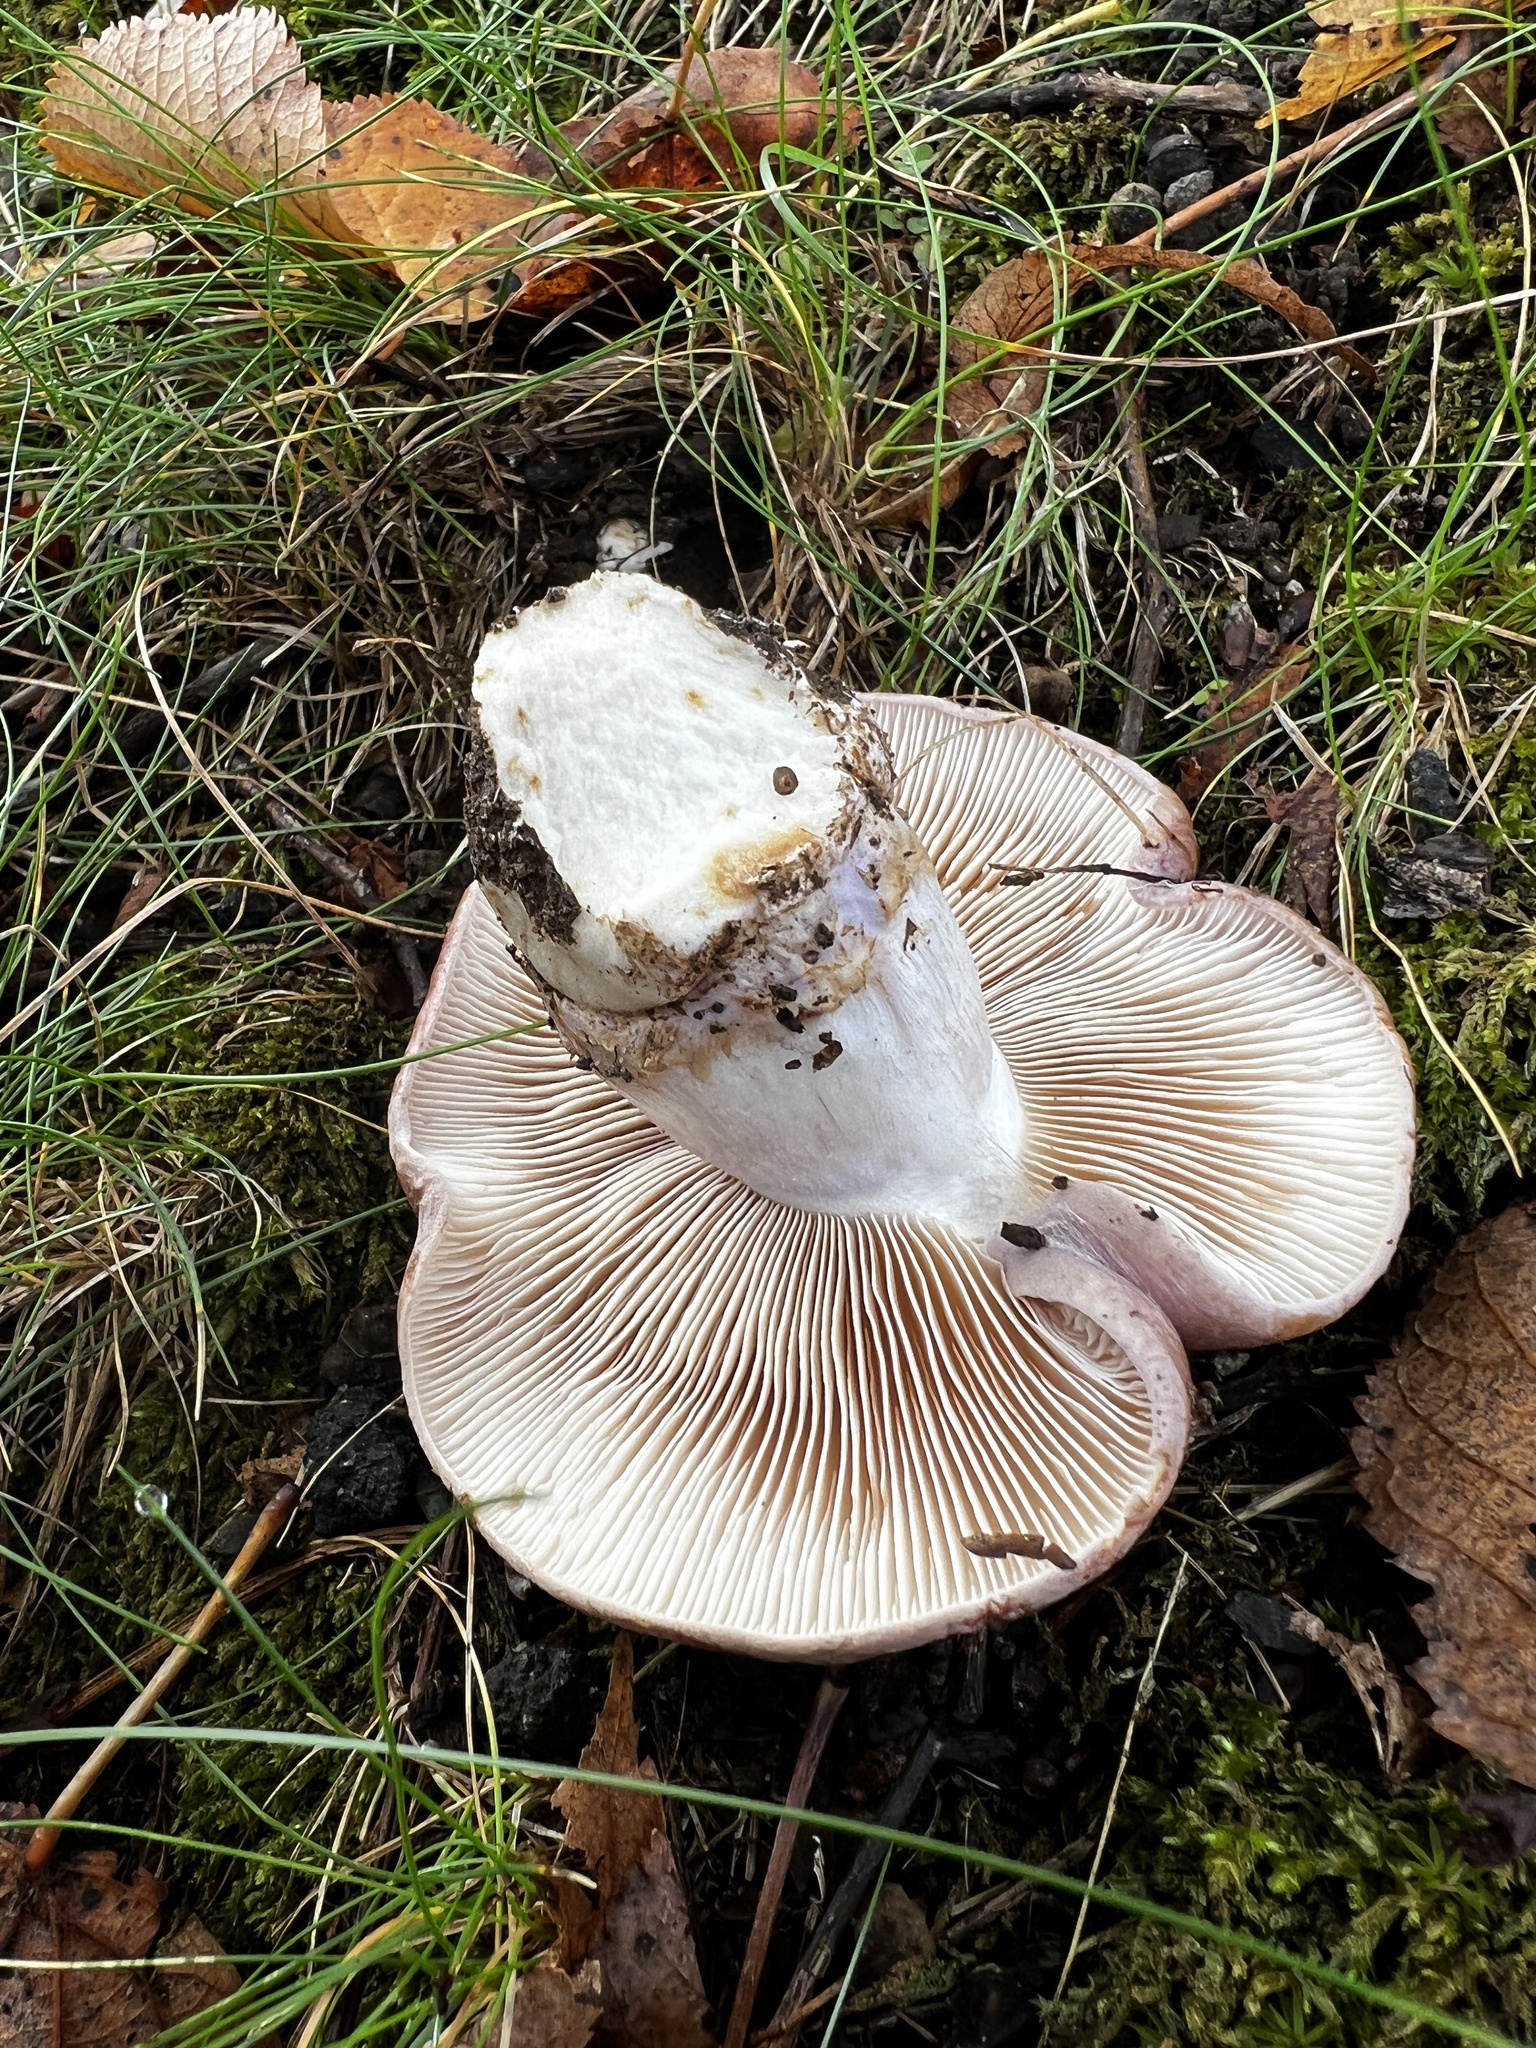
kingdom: Fungi
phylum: Basidiomycota
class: Agaricomycetes
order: Agaricales
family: Cortinariaceae
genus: Phlegmacium
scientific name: Phlegmacium flavescentipes
